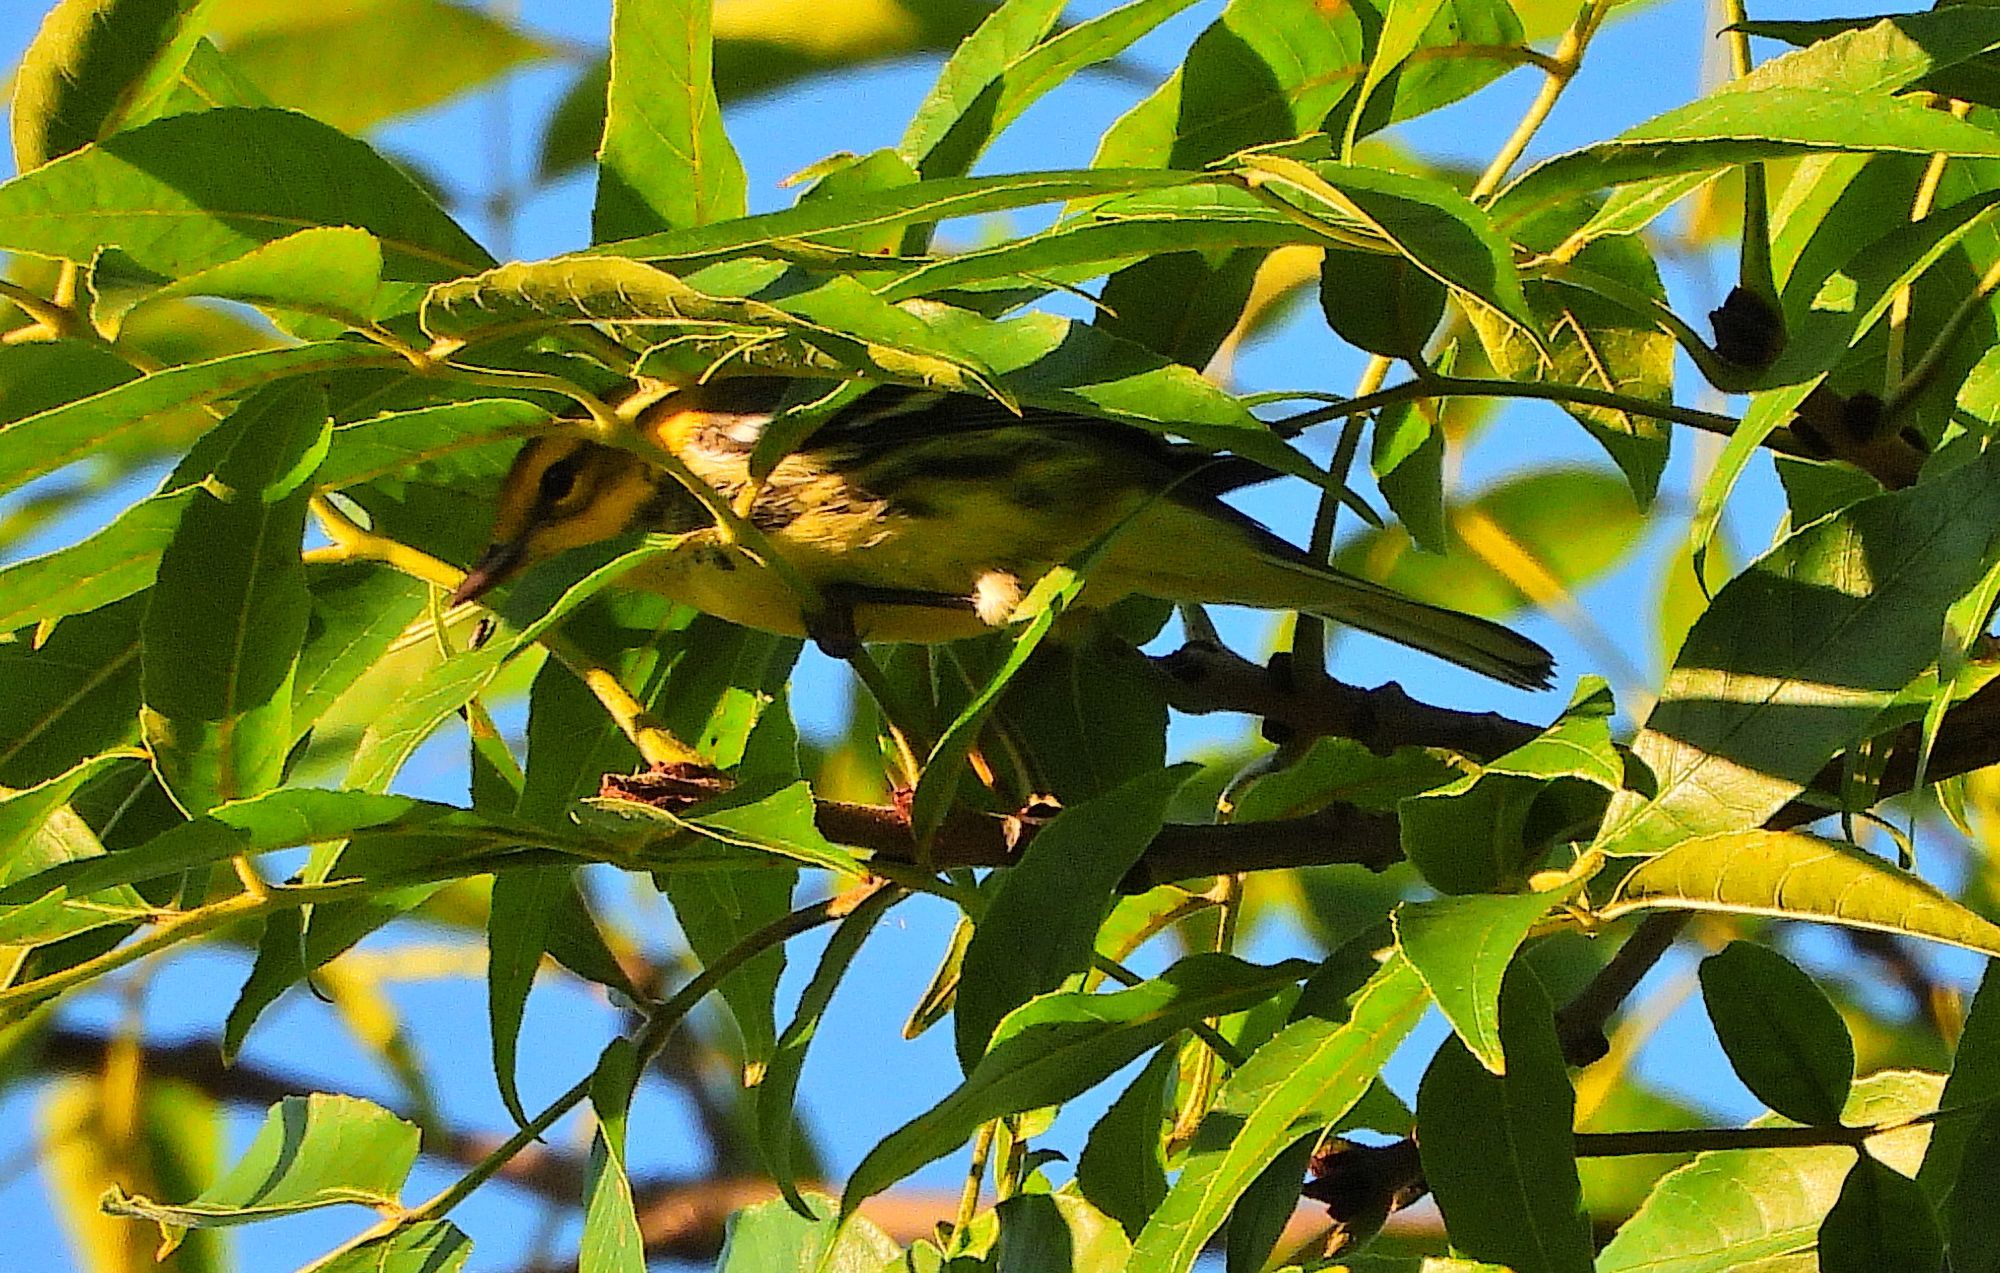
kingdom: Animalia
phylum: Chordata
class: Aves
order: Passeriformes
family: Parulidae
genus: Setophaga
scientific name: Setophaga virens
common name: Black-throated green warbler
